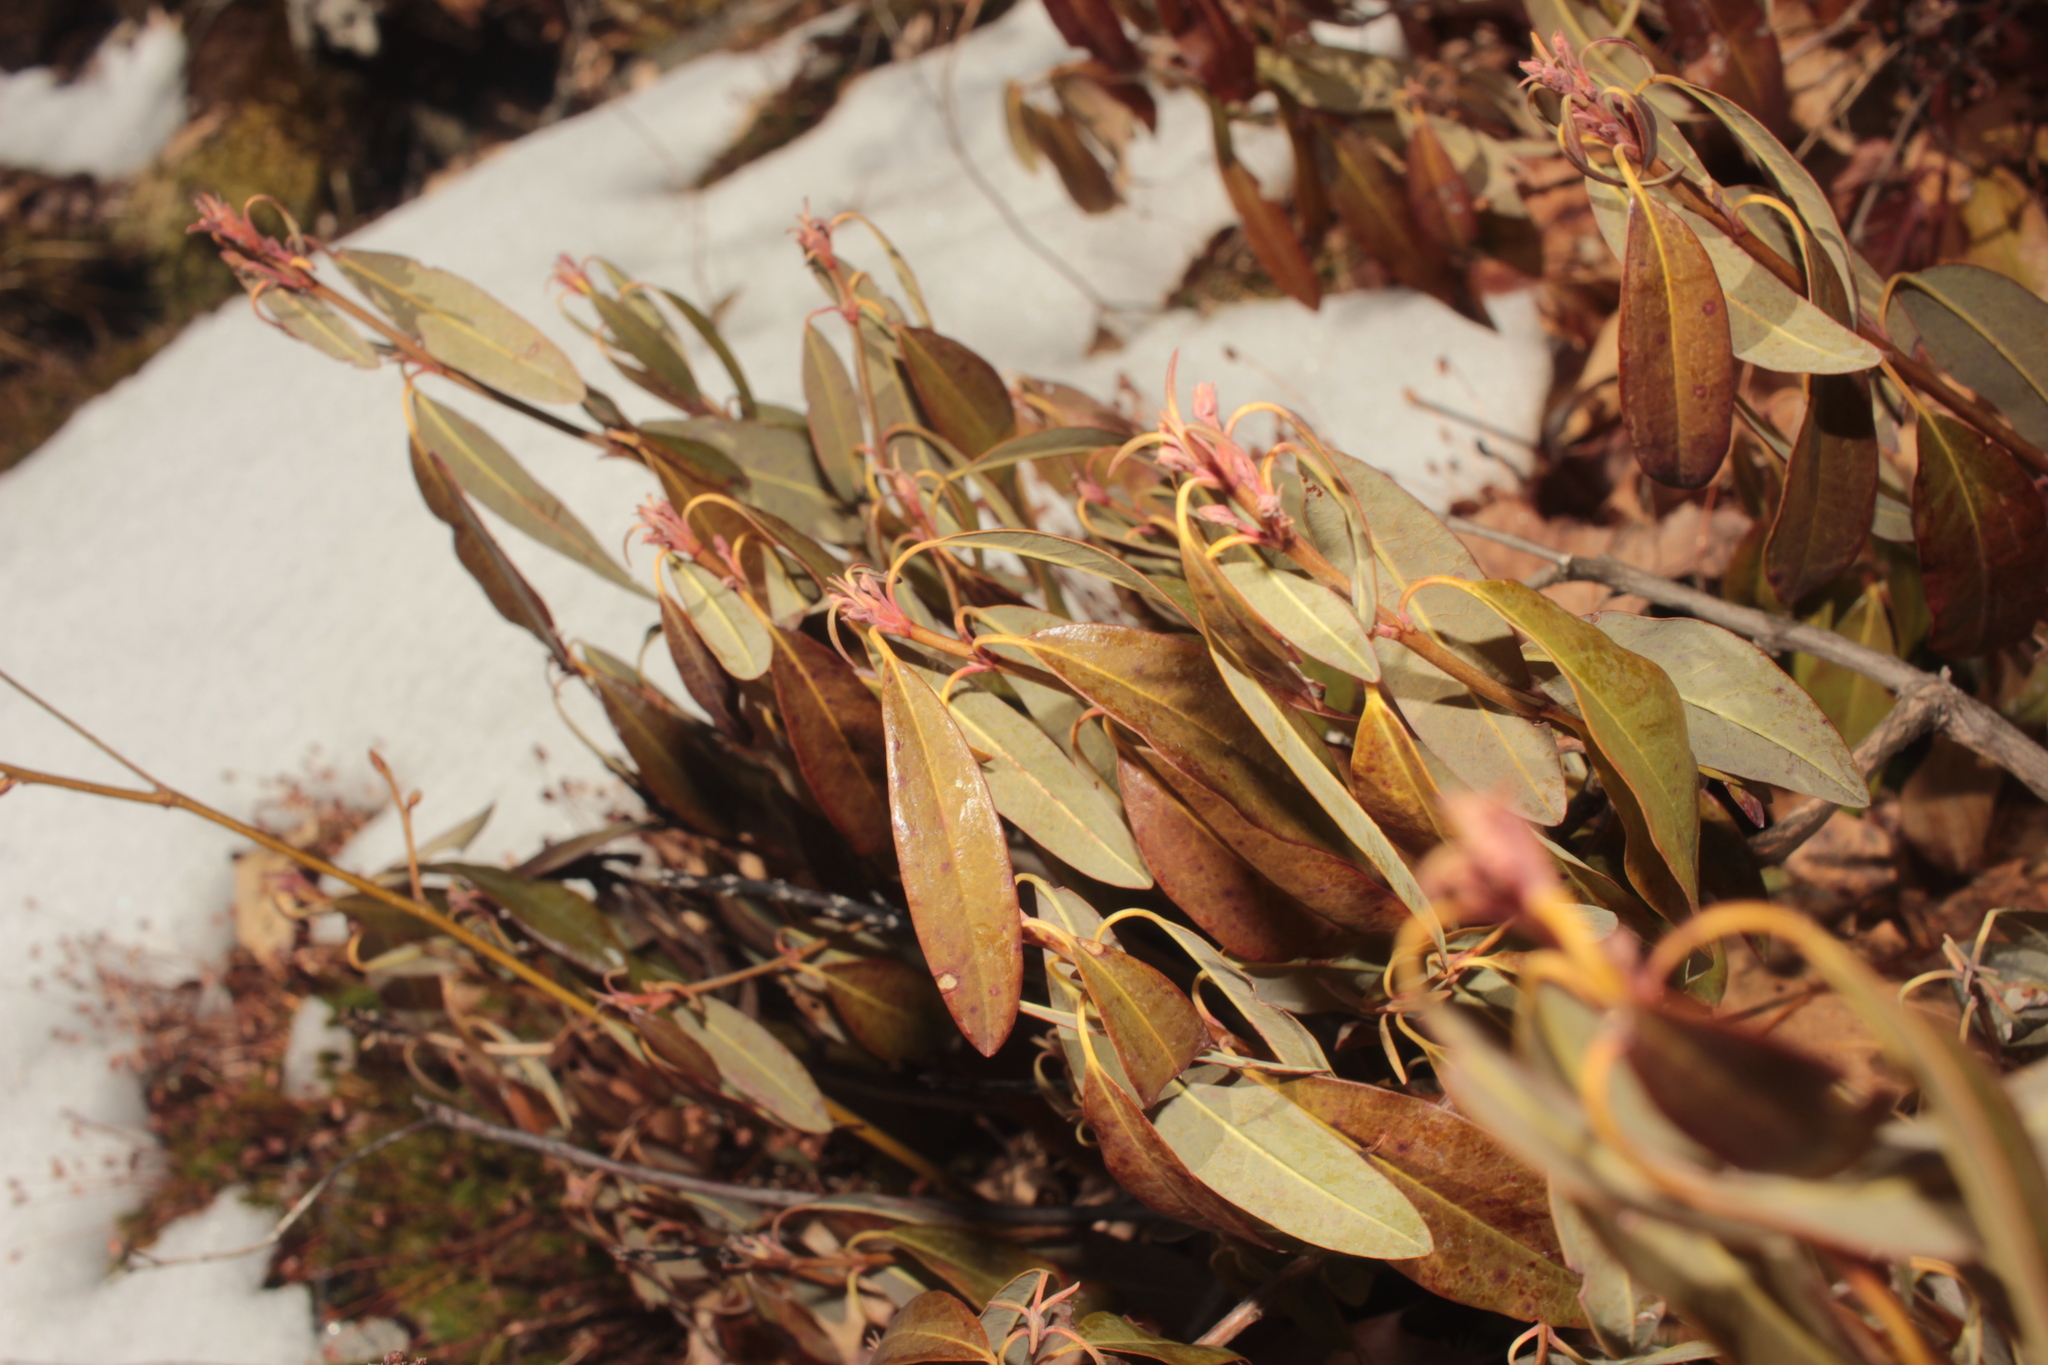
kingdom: Plantae
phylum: Tracheophyta
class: Magnoliopsida
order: Ericales
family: Ericaceae
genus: Kalmia
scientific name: Kalmia angustifolia
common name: Sheep-laurel
